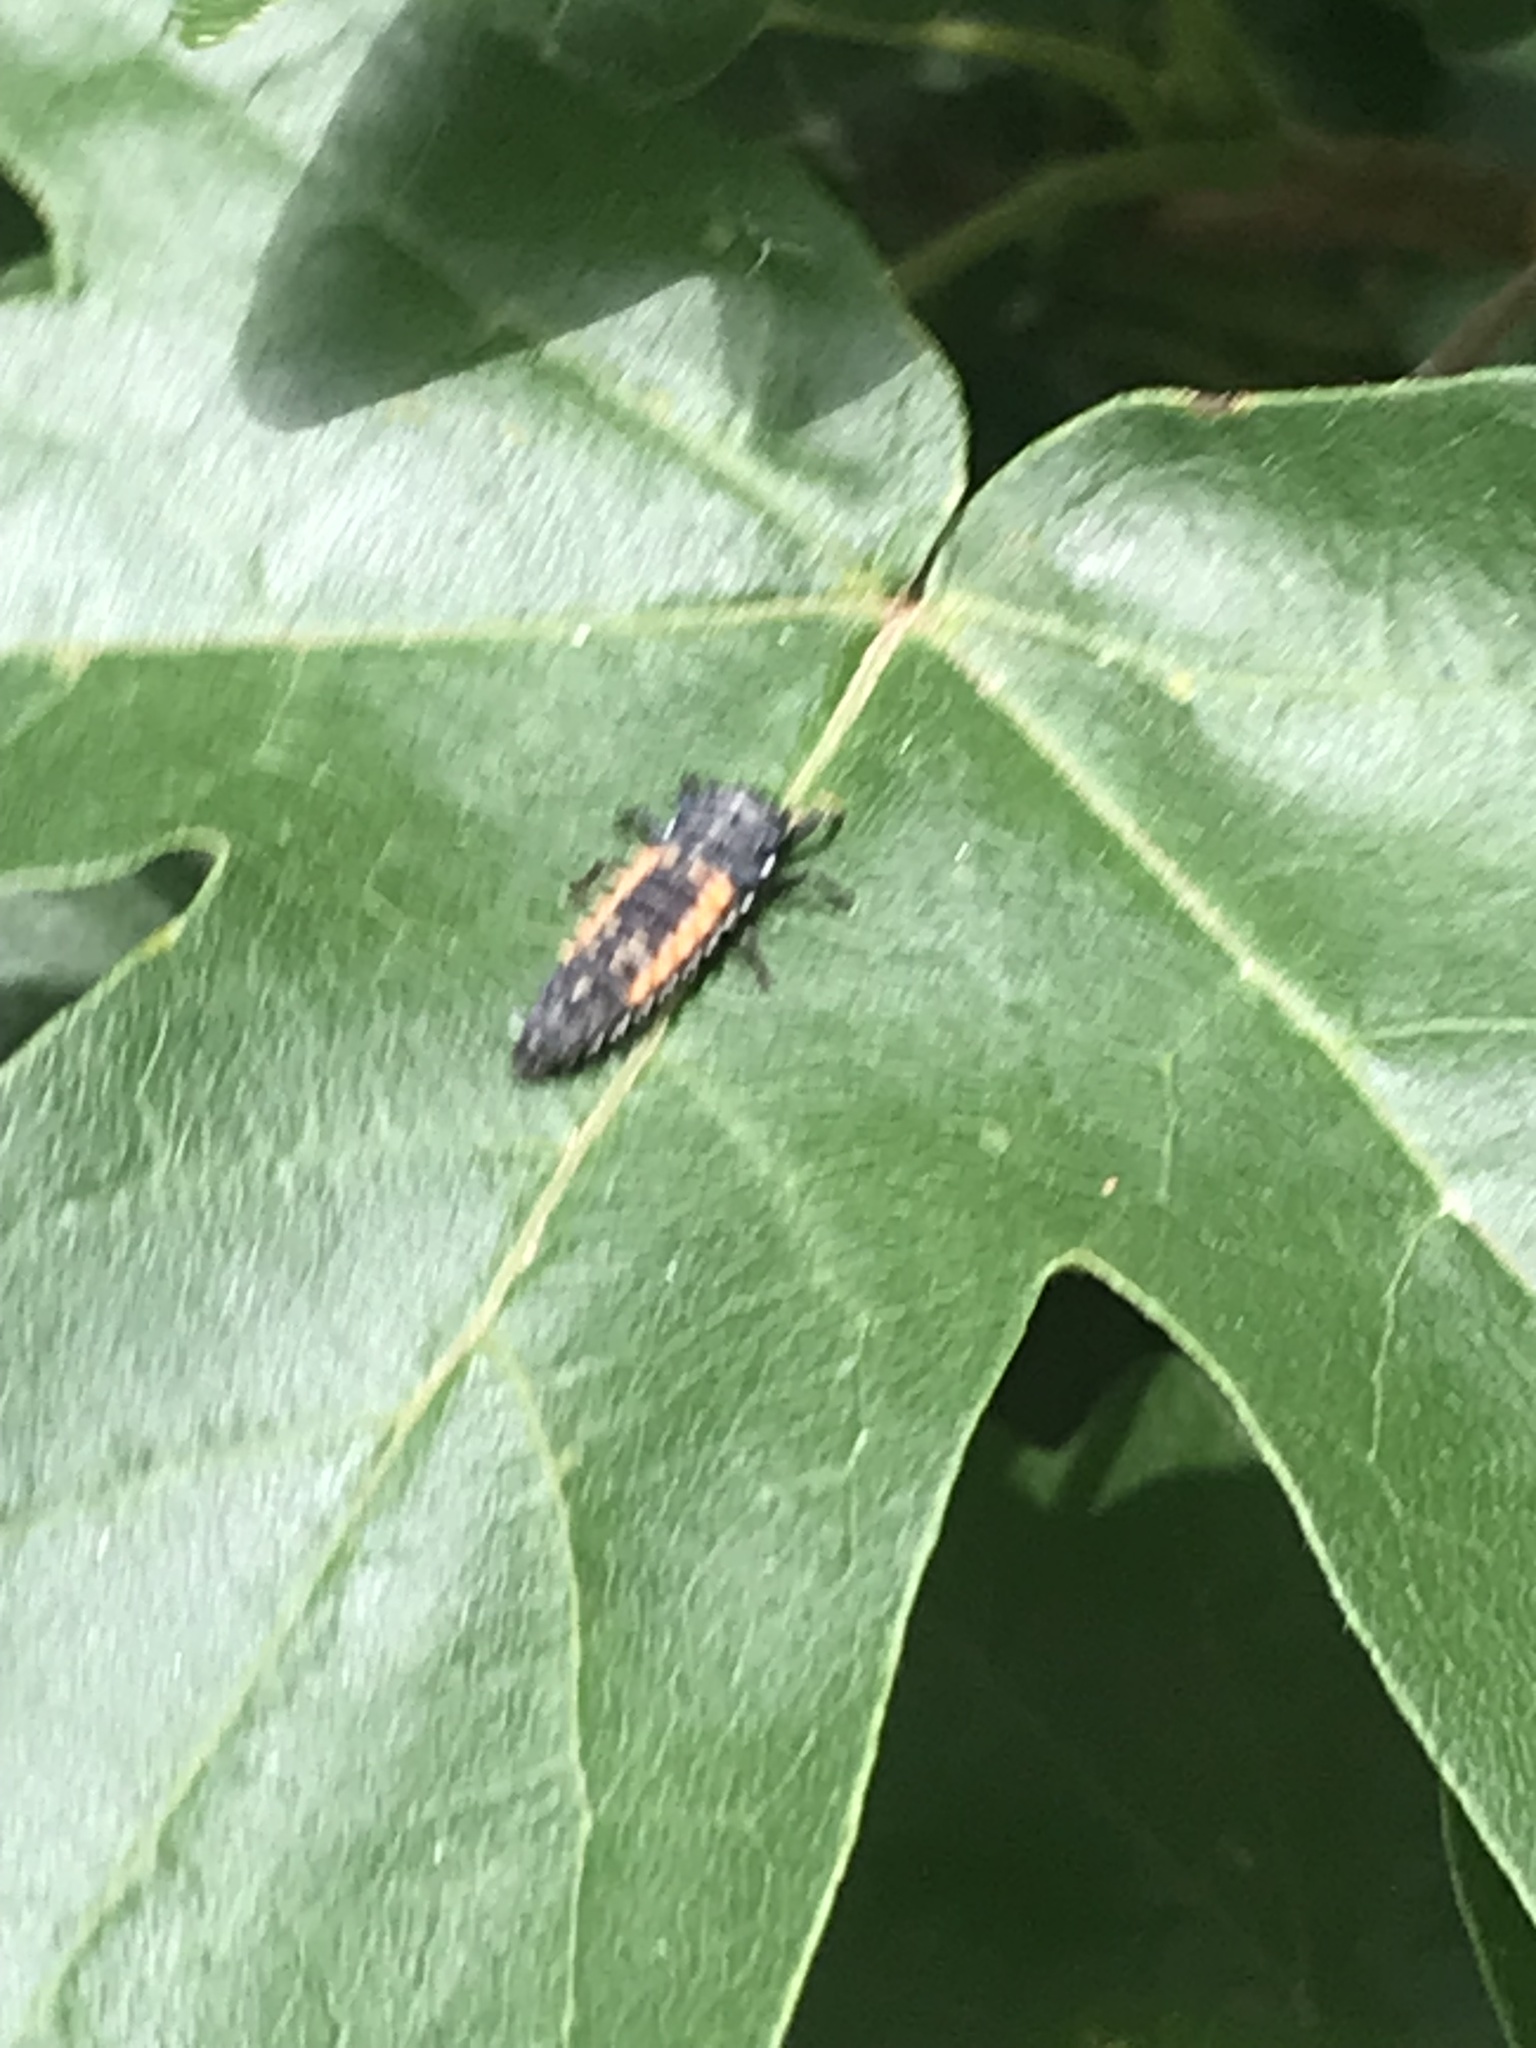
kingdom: Animalia
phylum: Arthropoda
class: Insecta
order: Coleoptera
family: Coccinellidae
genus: Harmonia
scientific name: Harmonia axyridis
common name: Harlequin ladybird
